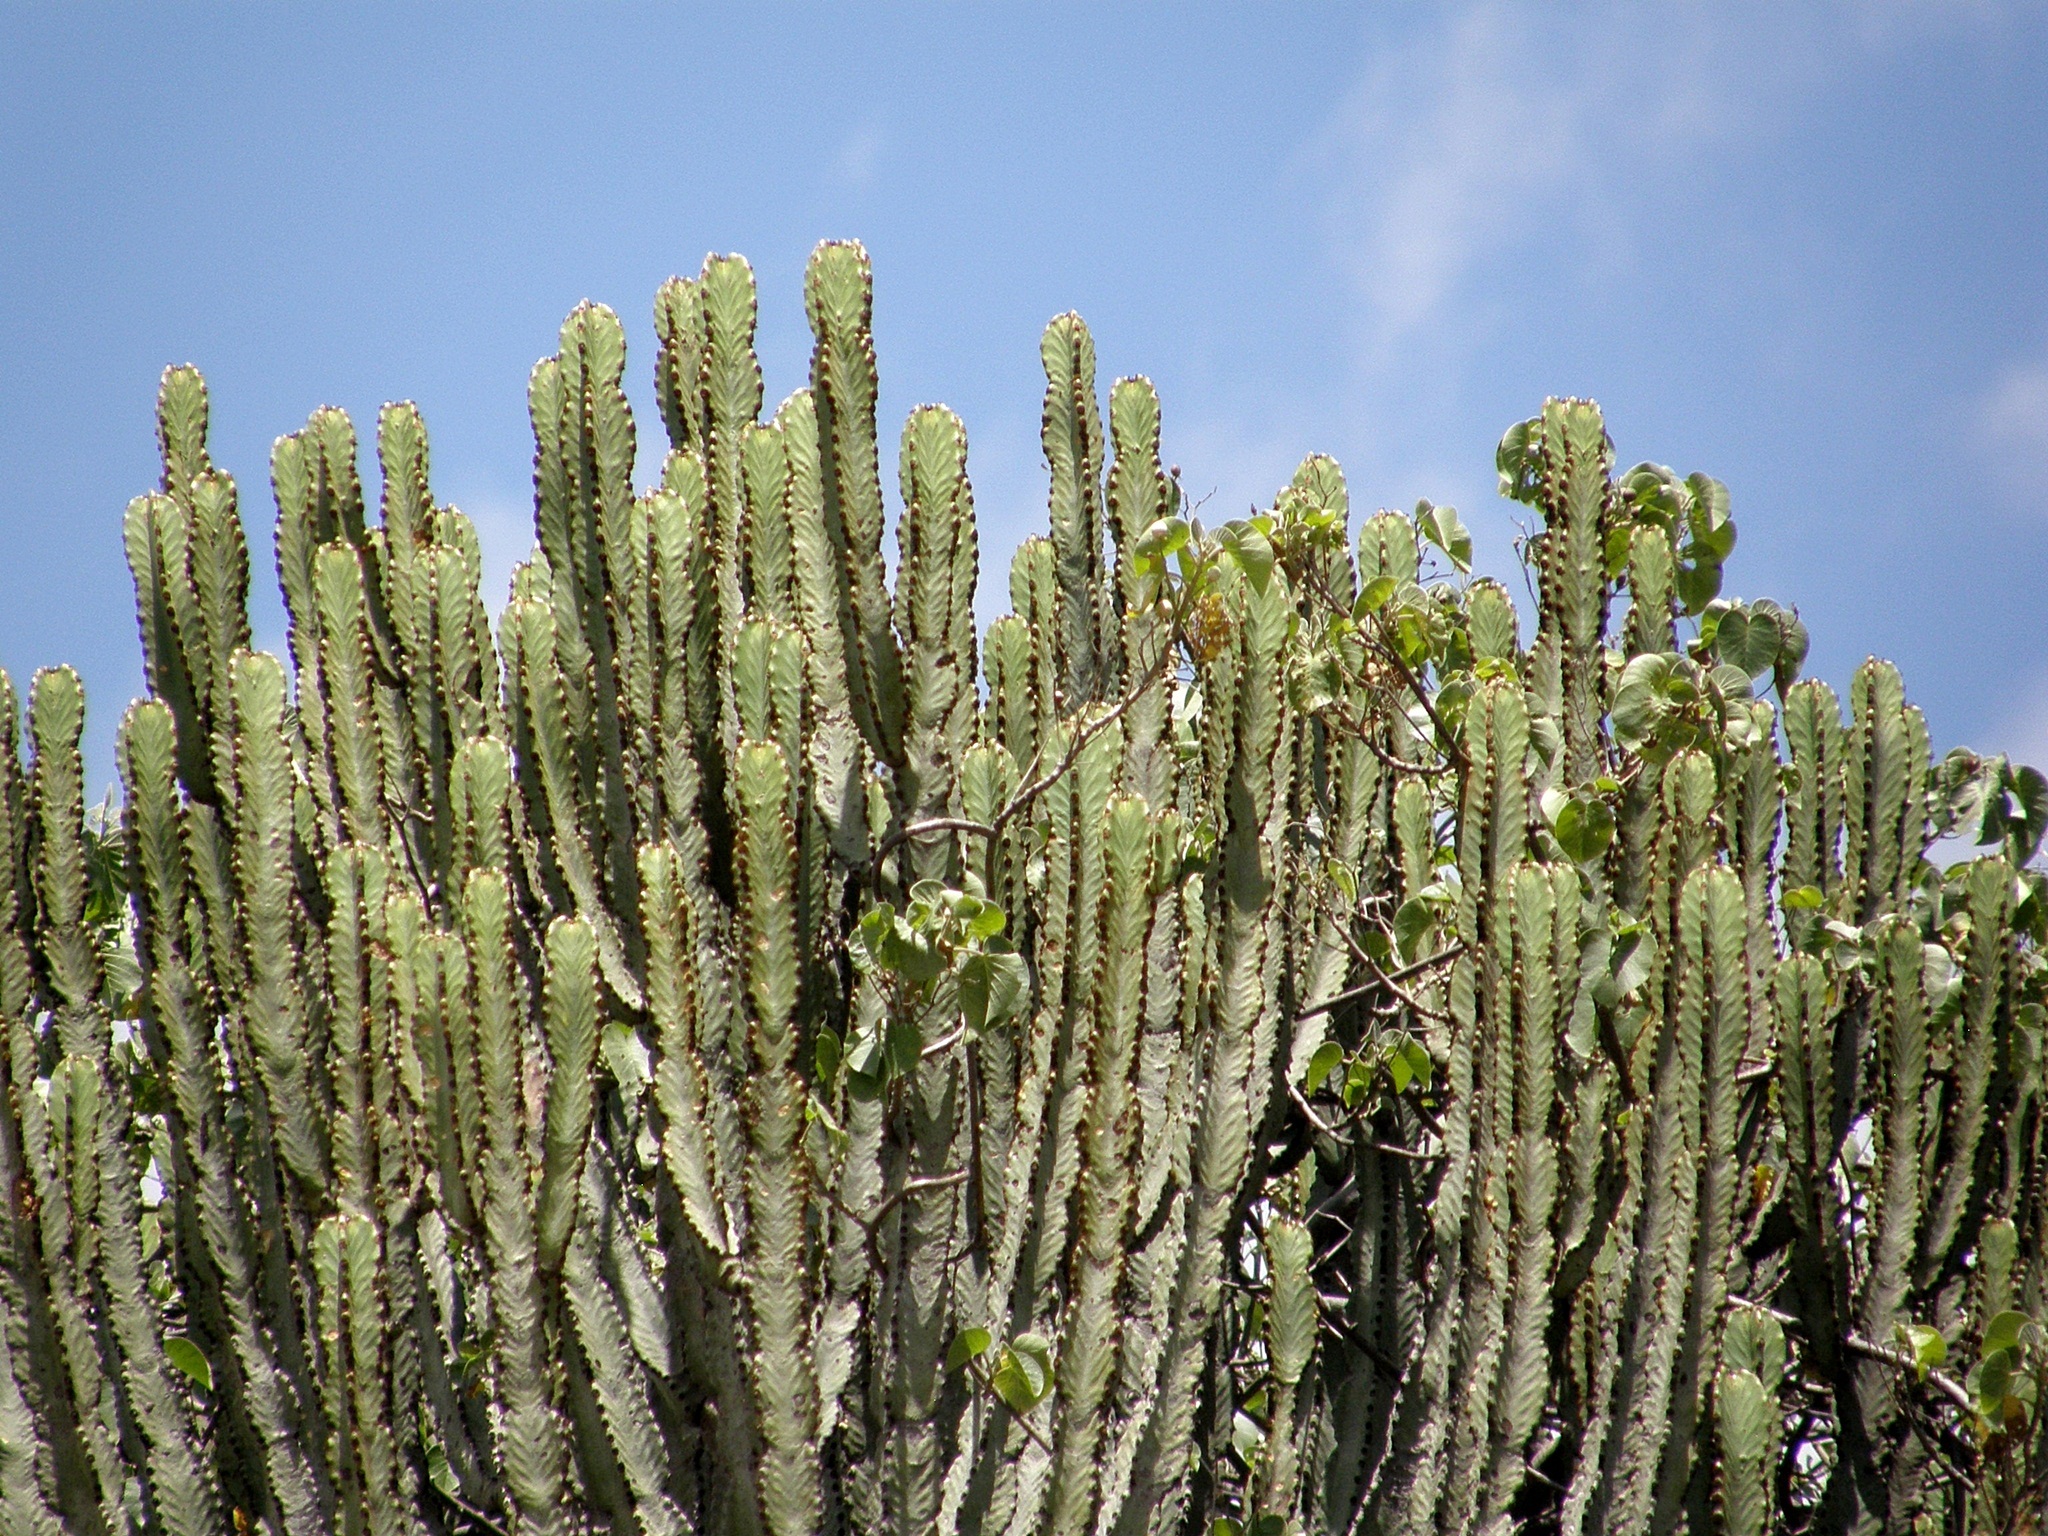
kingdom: Plantae
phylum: Tracheophyta
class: Magnoliopsida
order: Malpighiales
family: Euphorbiaceae
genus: Euphorbia
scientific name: Euphorbia ingens
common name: Cactus spurge
